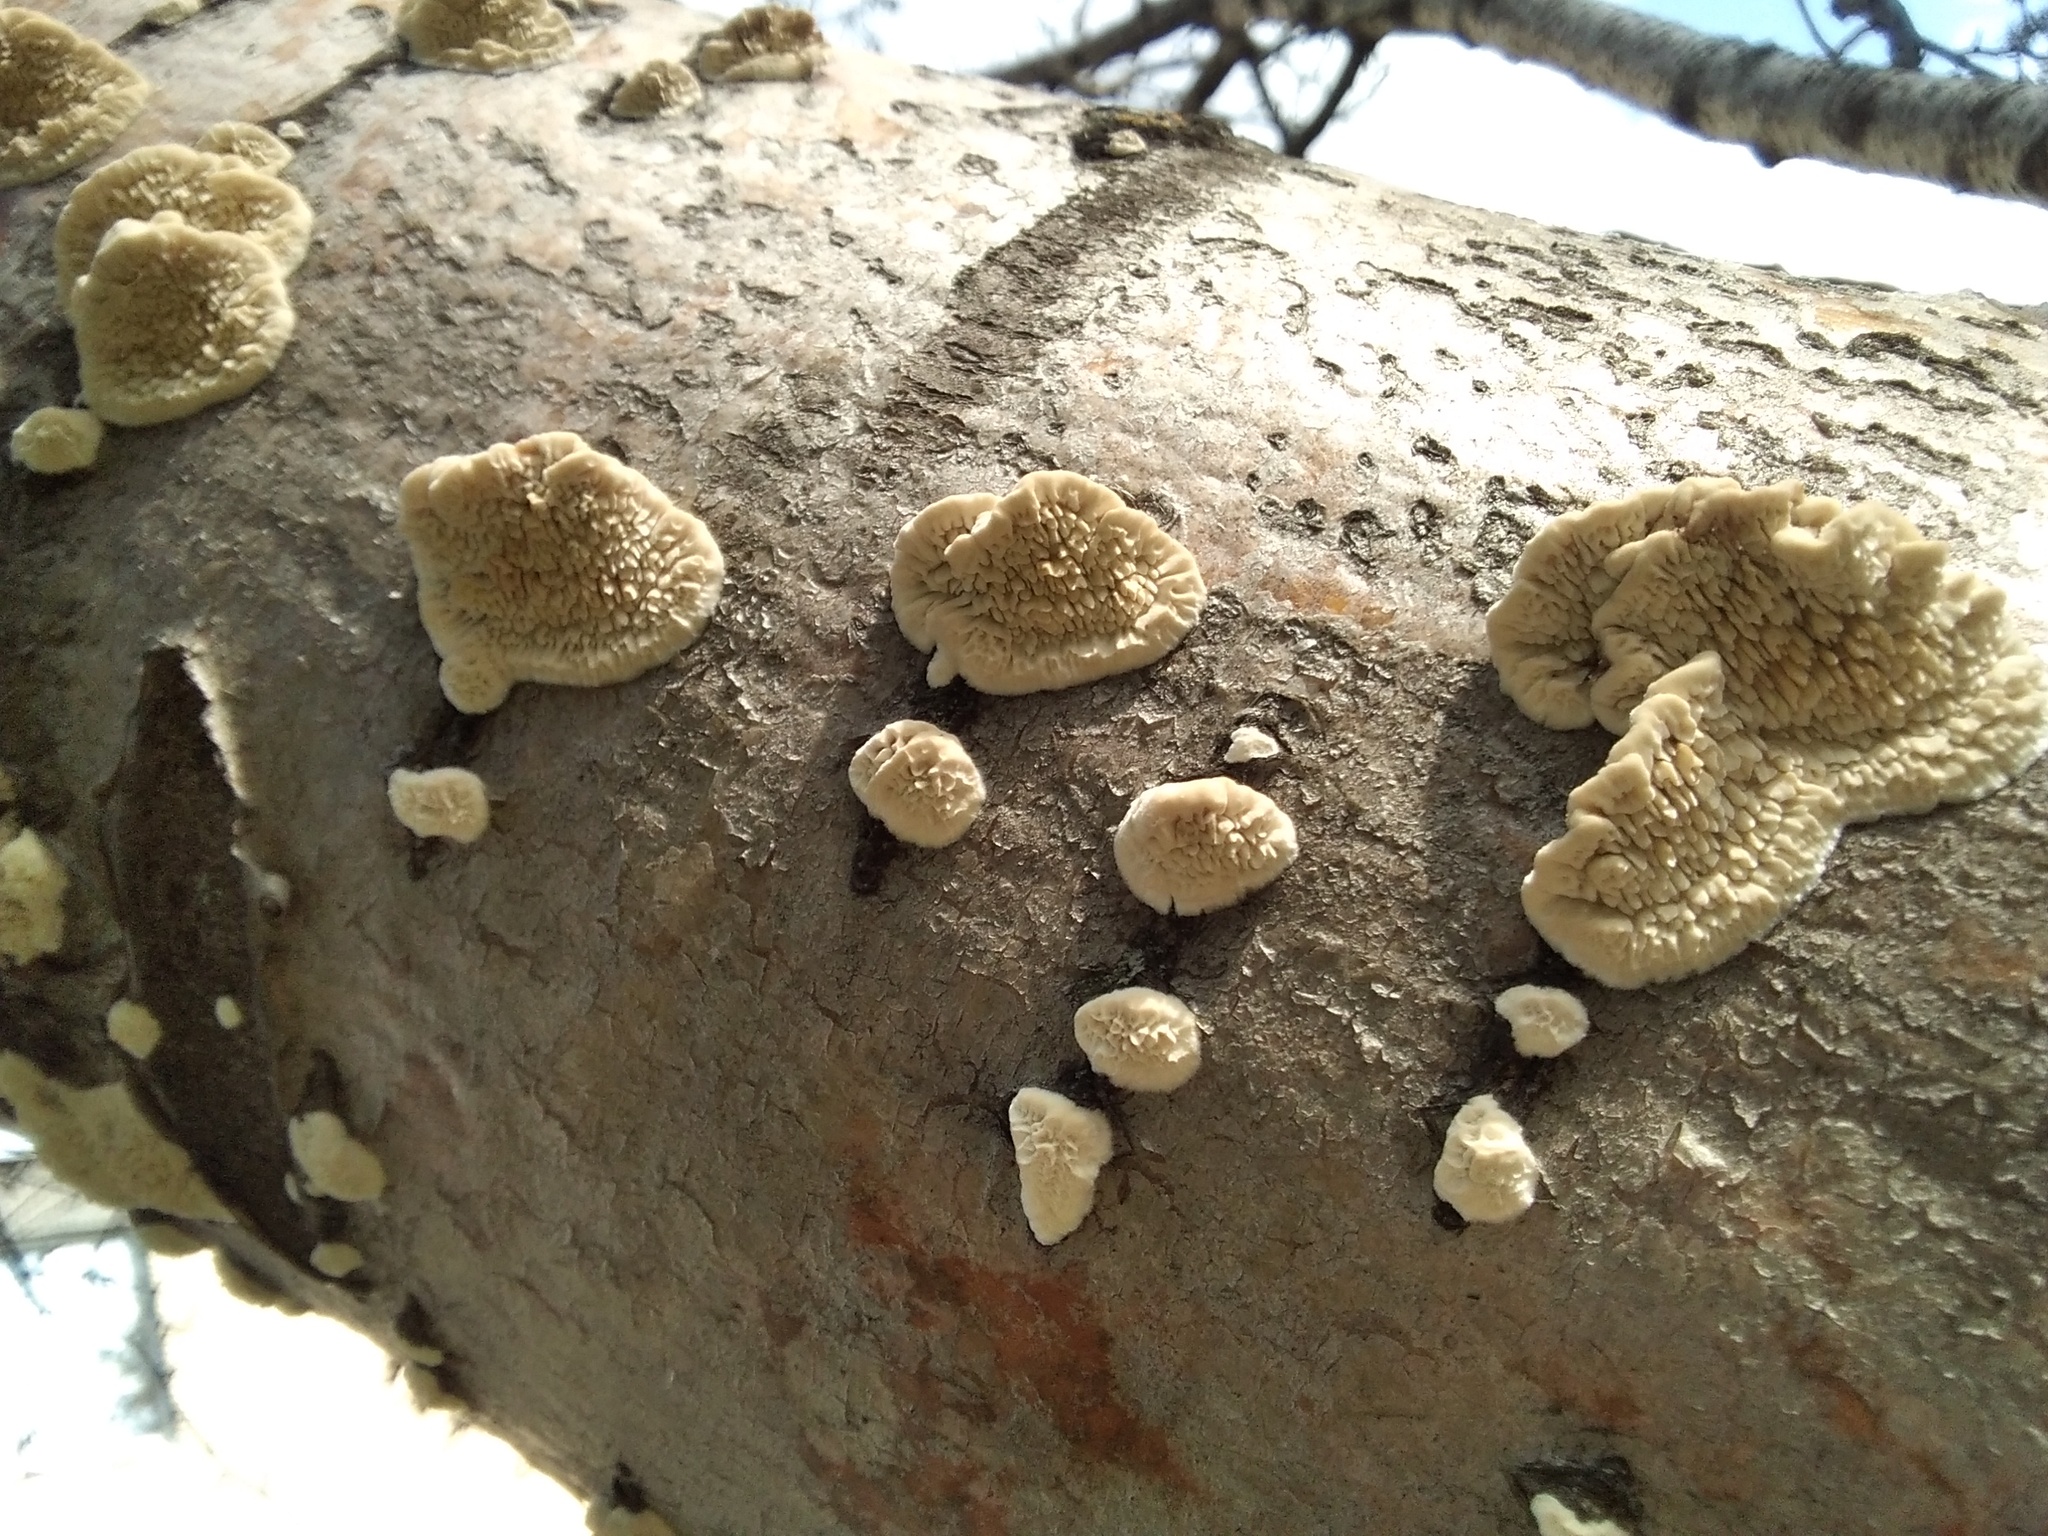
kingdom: Fungi
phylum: Basidiomycota
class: Agaricomycetes
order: Polyporales
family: Irpicaceae
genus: Irpex
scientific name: Irpex lacteus
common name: Milk-white toothed polypore
